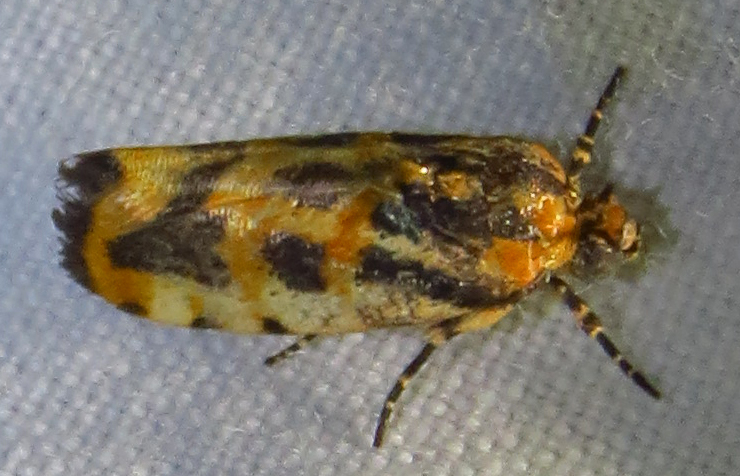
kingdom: Animalia
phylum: Arthropoda
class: Insecta
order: Lepidoptera
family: Noctuidae
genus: Acontia
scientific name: Acontia leo
